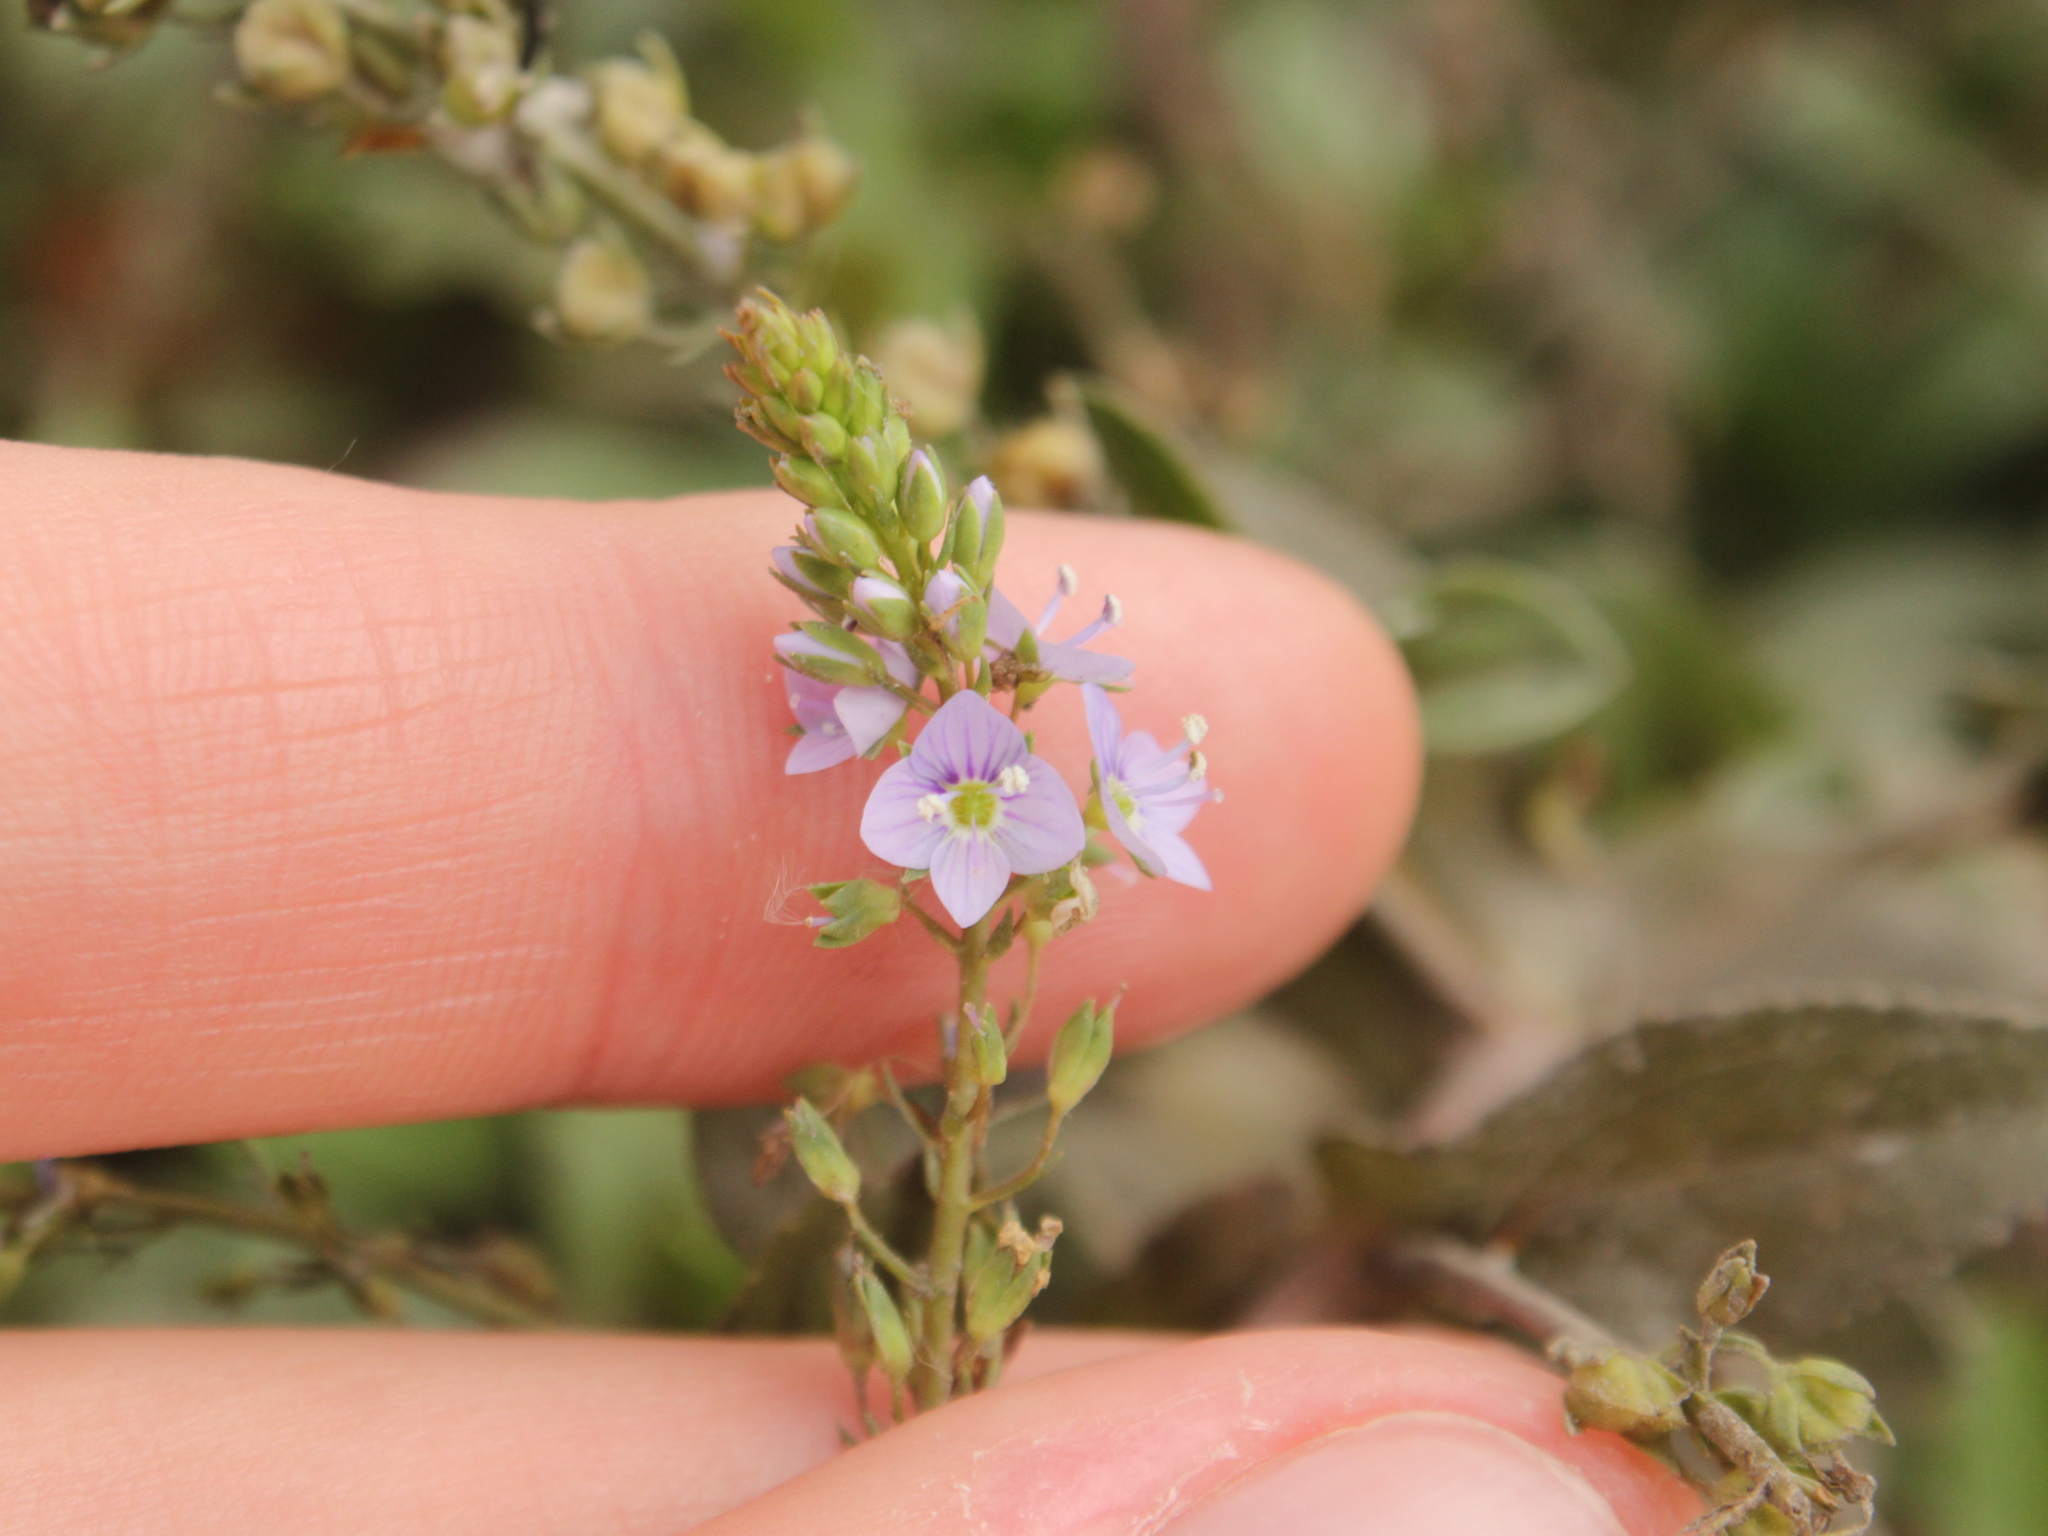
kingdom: Plantae
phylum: Tracheophyta
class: Magnoliopsida
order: Lamiales
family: Plantaginaceae
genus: Veronica
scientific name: Veronica anagallis-aquatica
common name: Water speedwell
